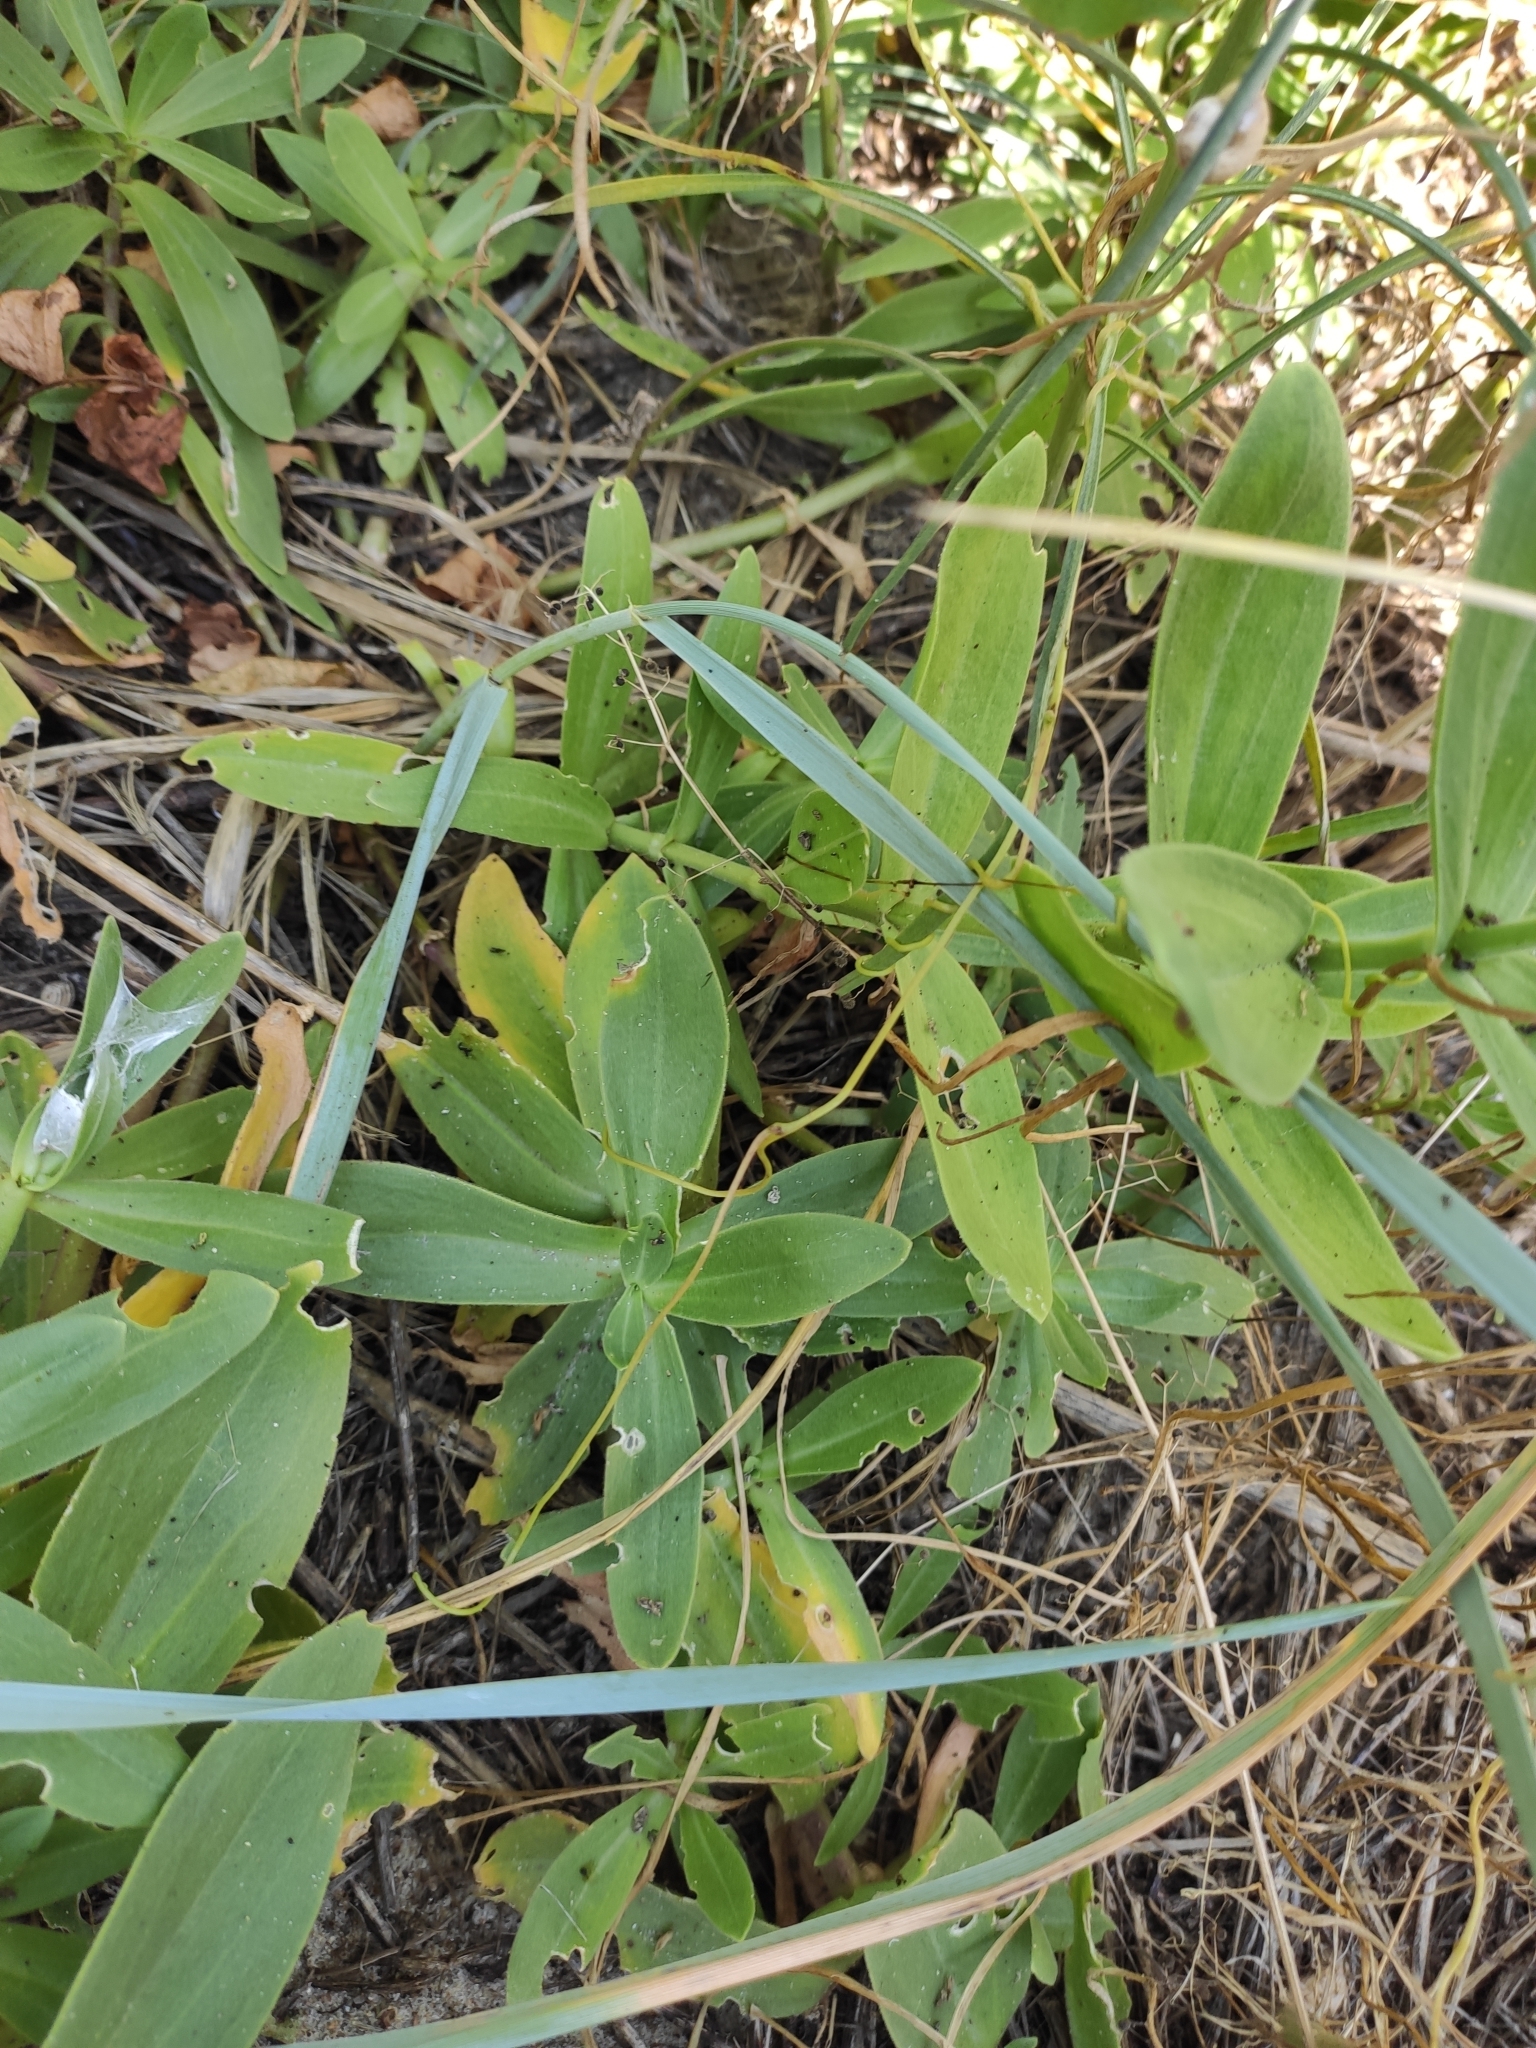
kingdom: Plantae
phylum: Tracheophyta
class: Magnoliopsida
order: Caryophyllales
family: Caryophyllaceae
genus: Gypsophila
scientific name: Gypsophila perfoliata
